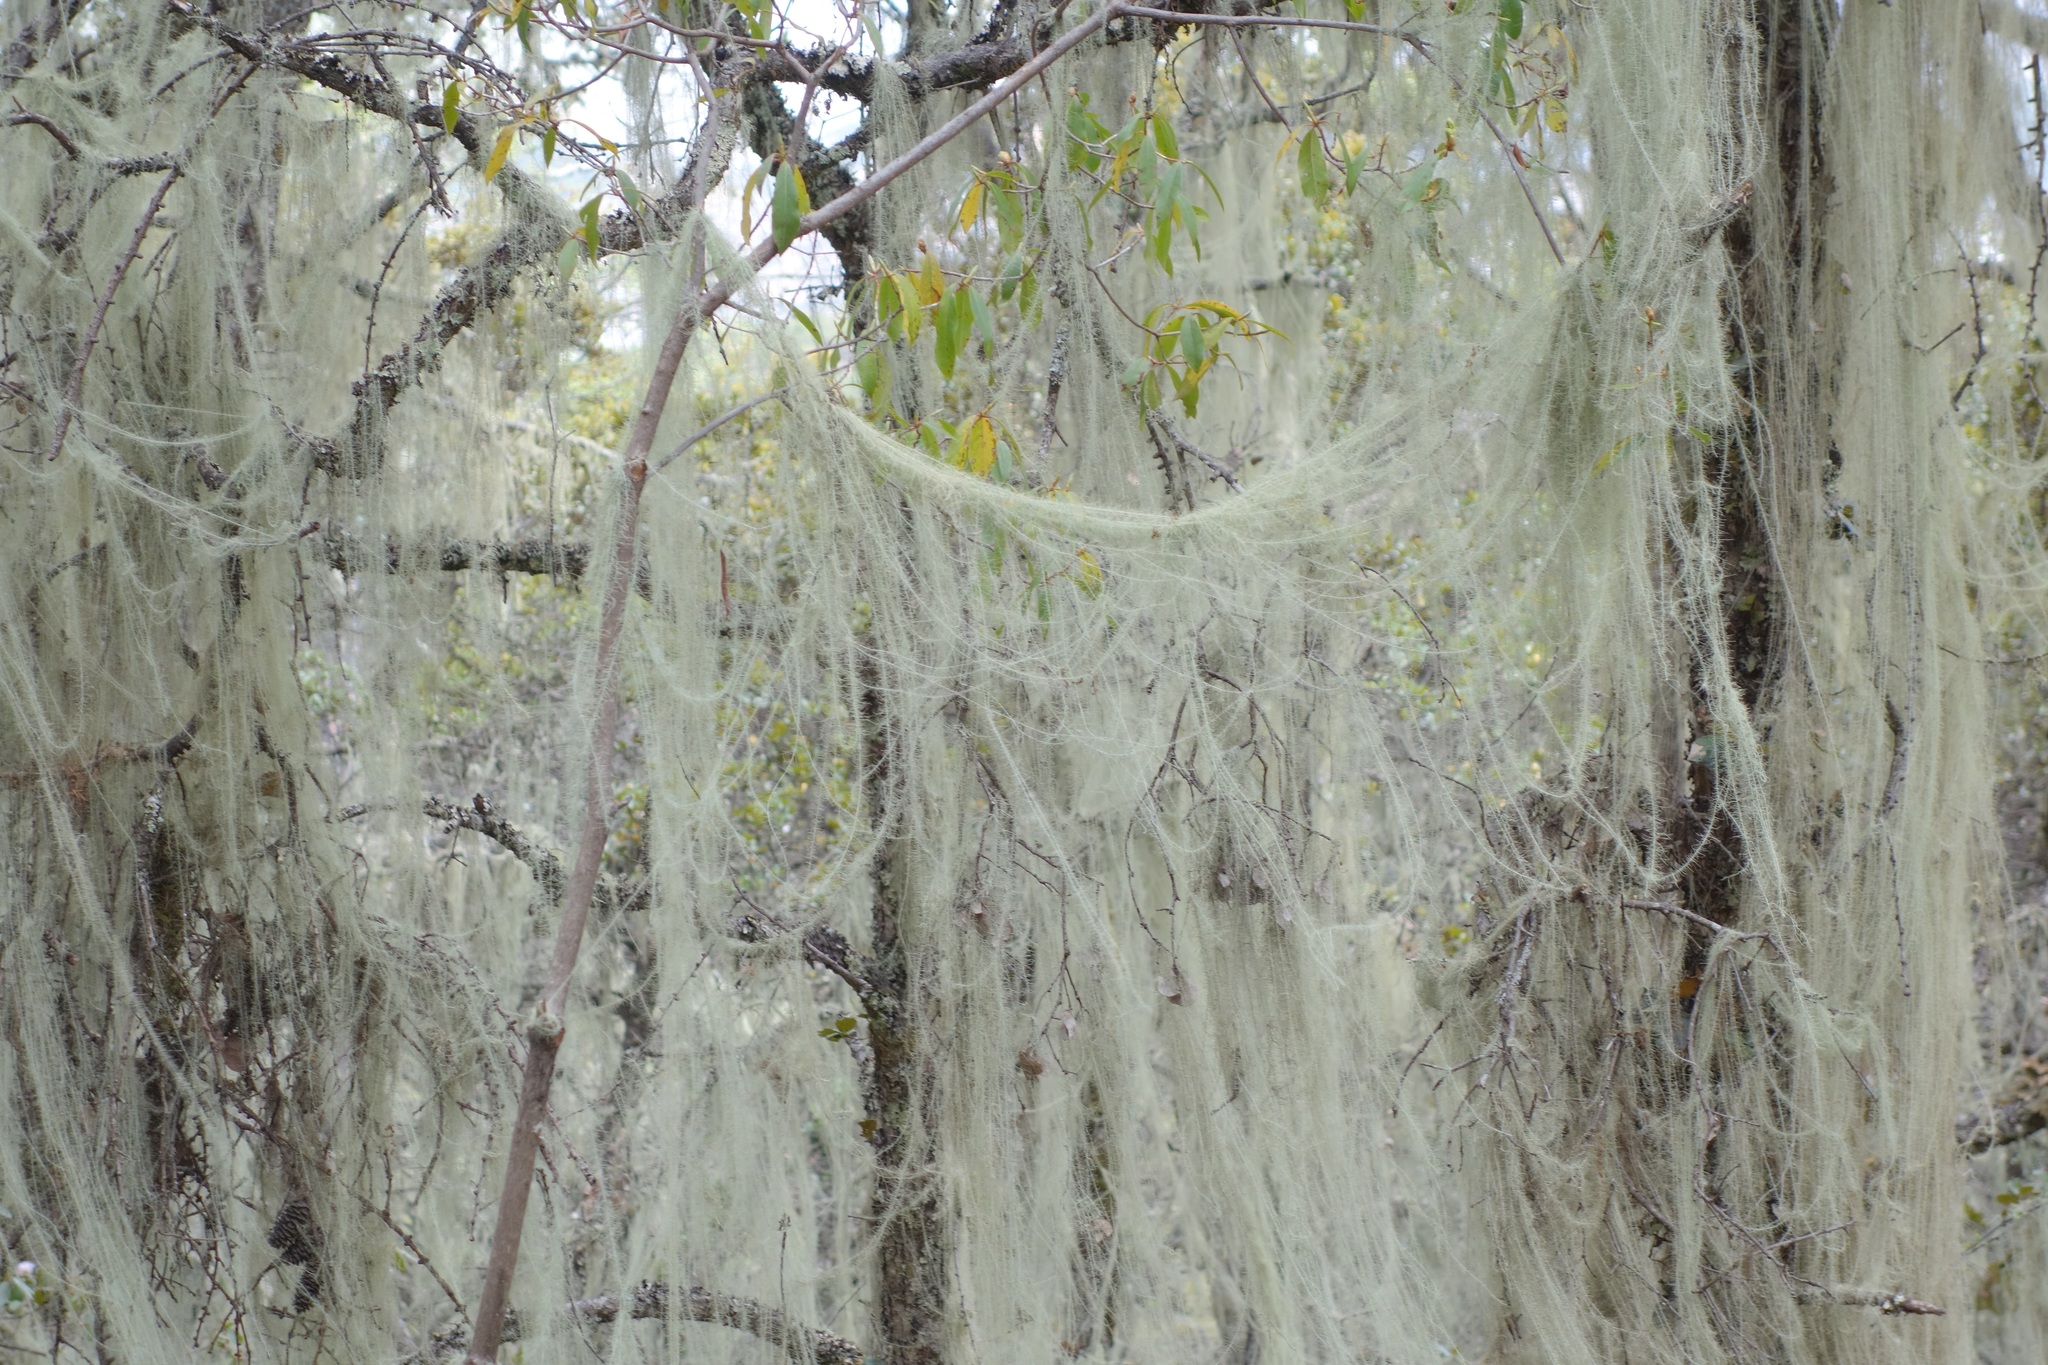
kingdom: Fungi
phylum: Ascomycota
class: Lecanoromycetes
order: Lecanorales
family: Parmeliaceae
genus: Dolichousnea
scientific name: Dolichousnea longissima
